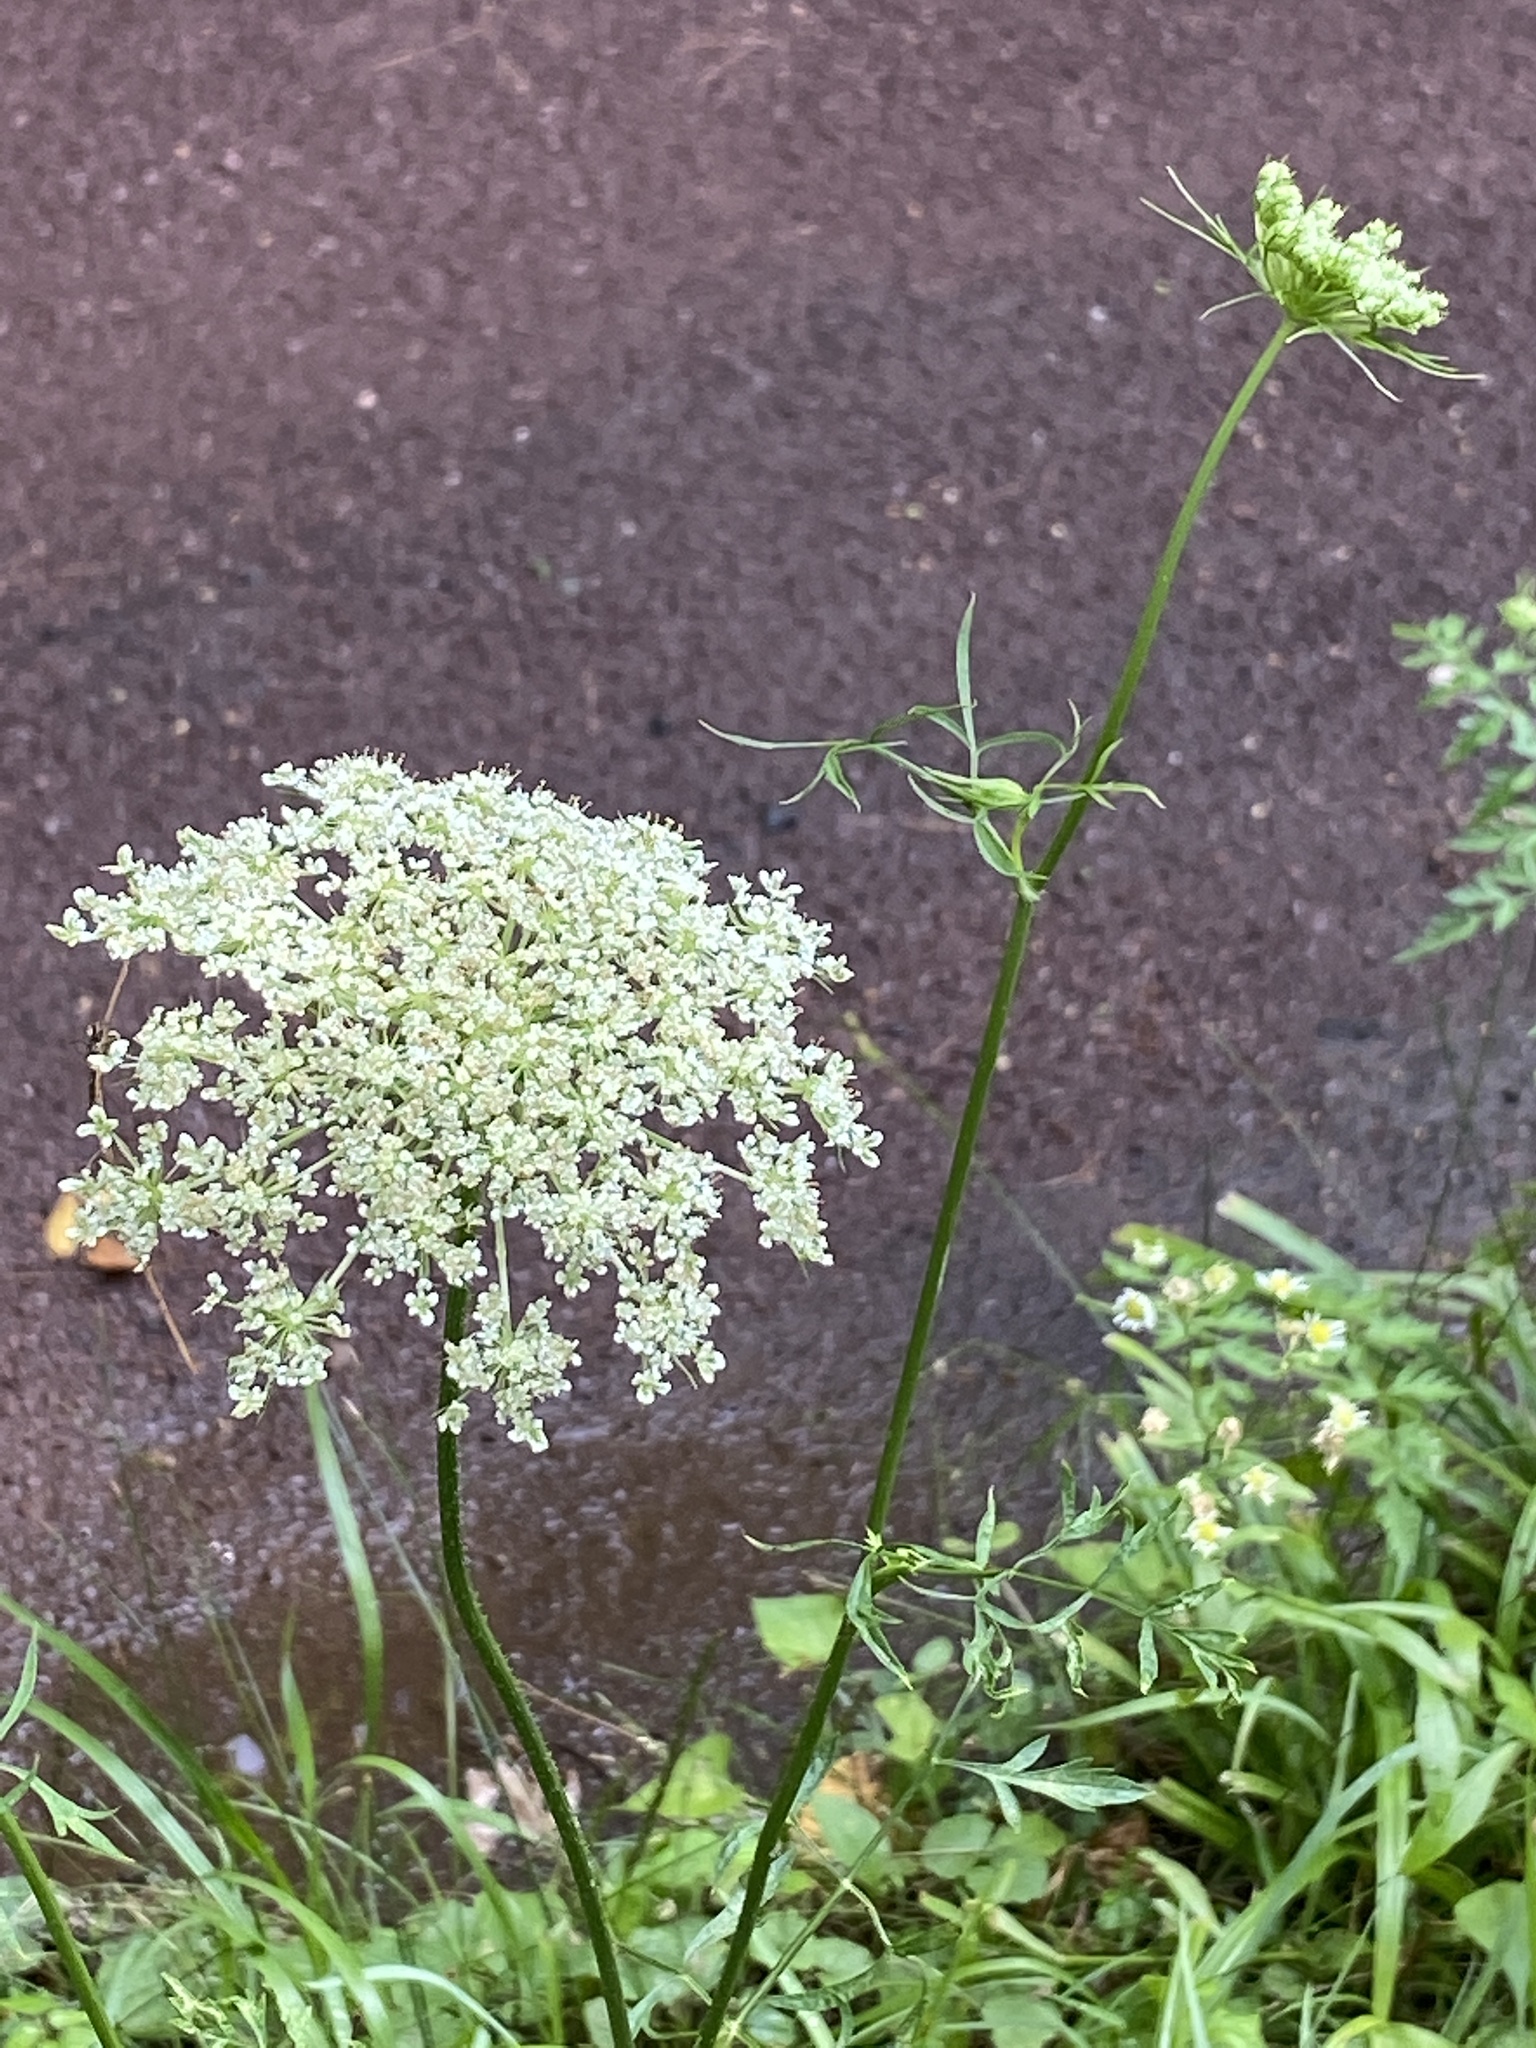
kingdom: Plantae
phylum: Tracheophyta
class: Magnoliopsida
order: Apiales
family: Apiaceae
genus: Daucus
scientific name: Daucus carota
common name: Wild carrot
